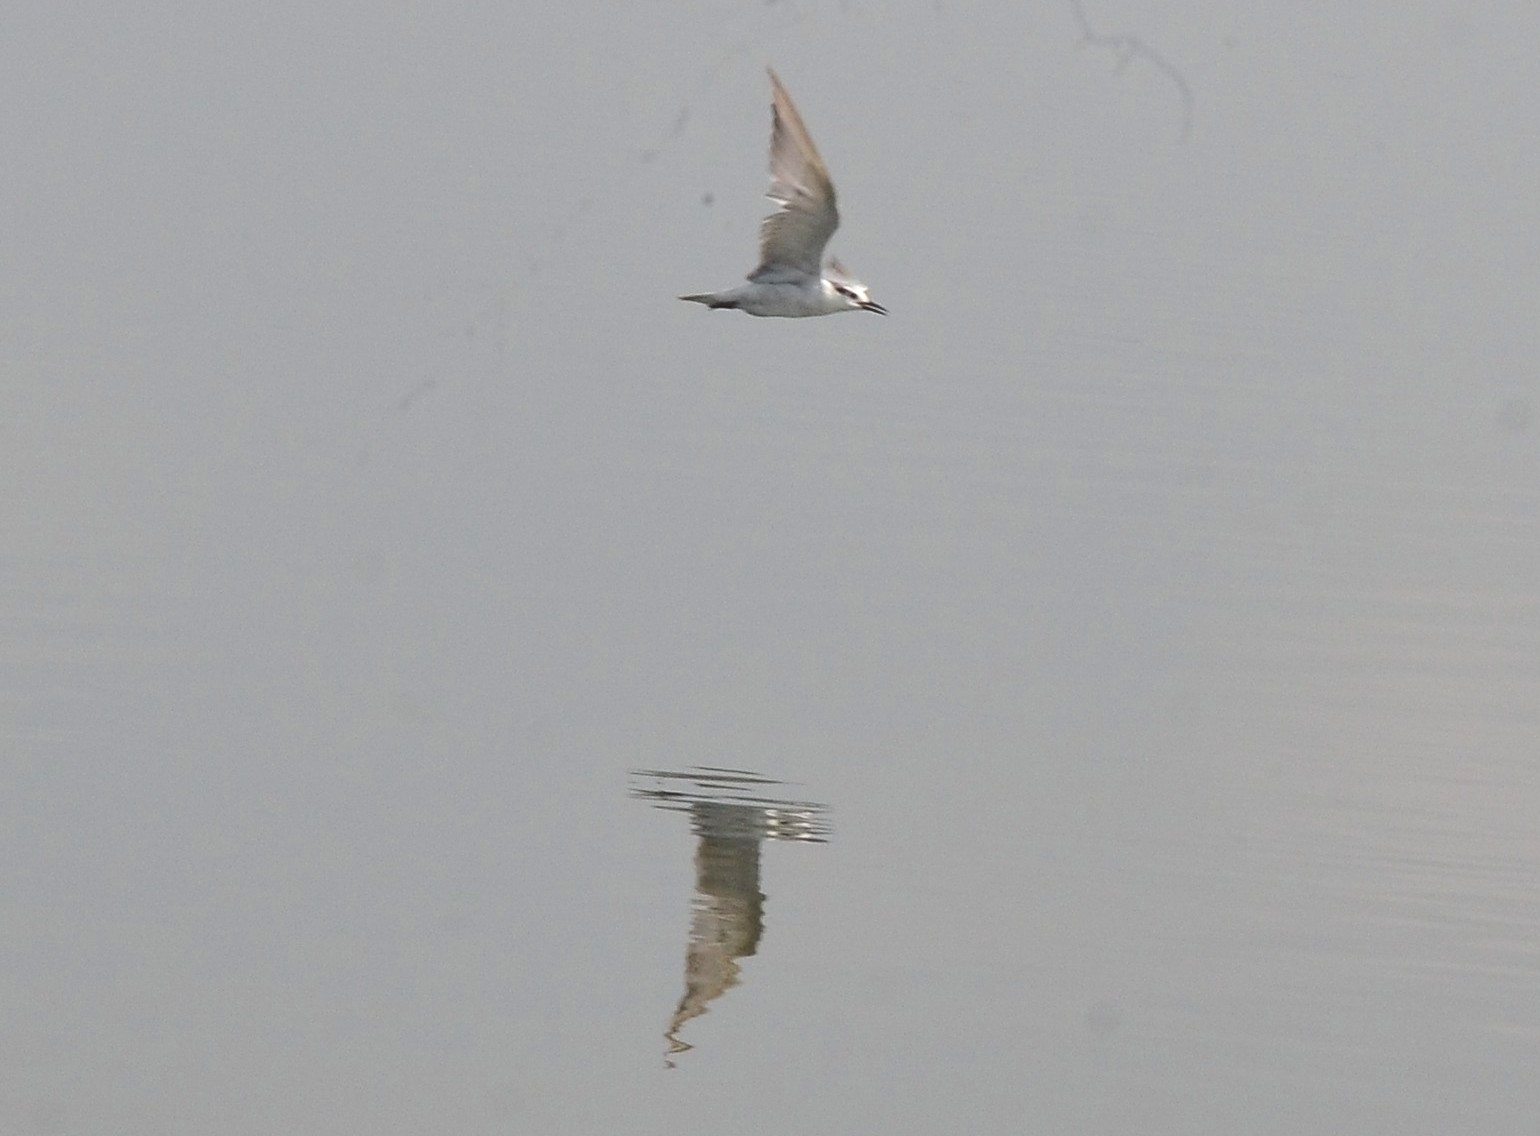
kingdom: Animalia
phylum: Chordata
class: Aves
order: Charadriiformes
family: Laridae
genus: Chlidonias
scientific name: Chlidonias hybrida
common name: Whiskered tern
